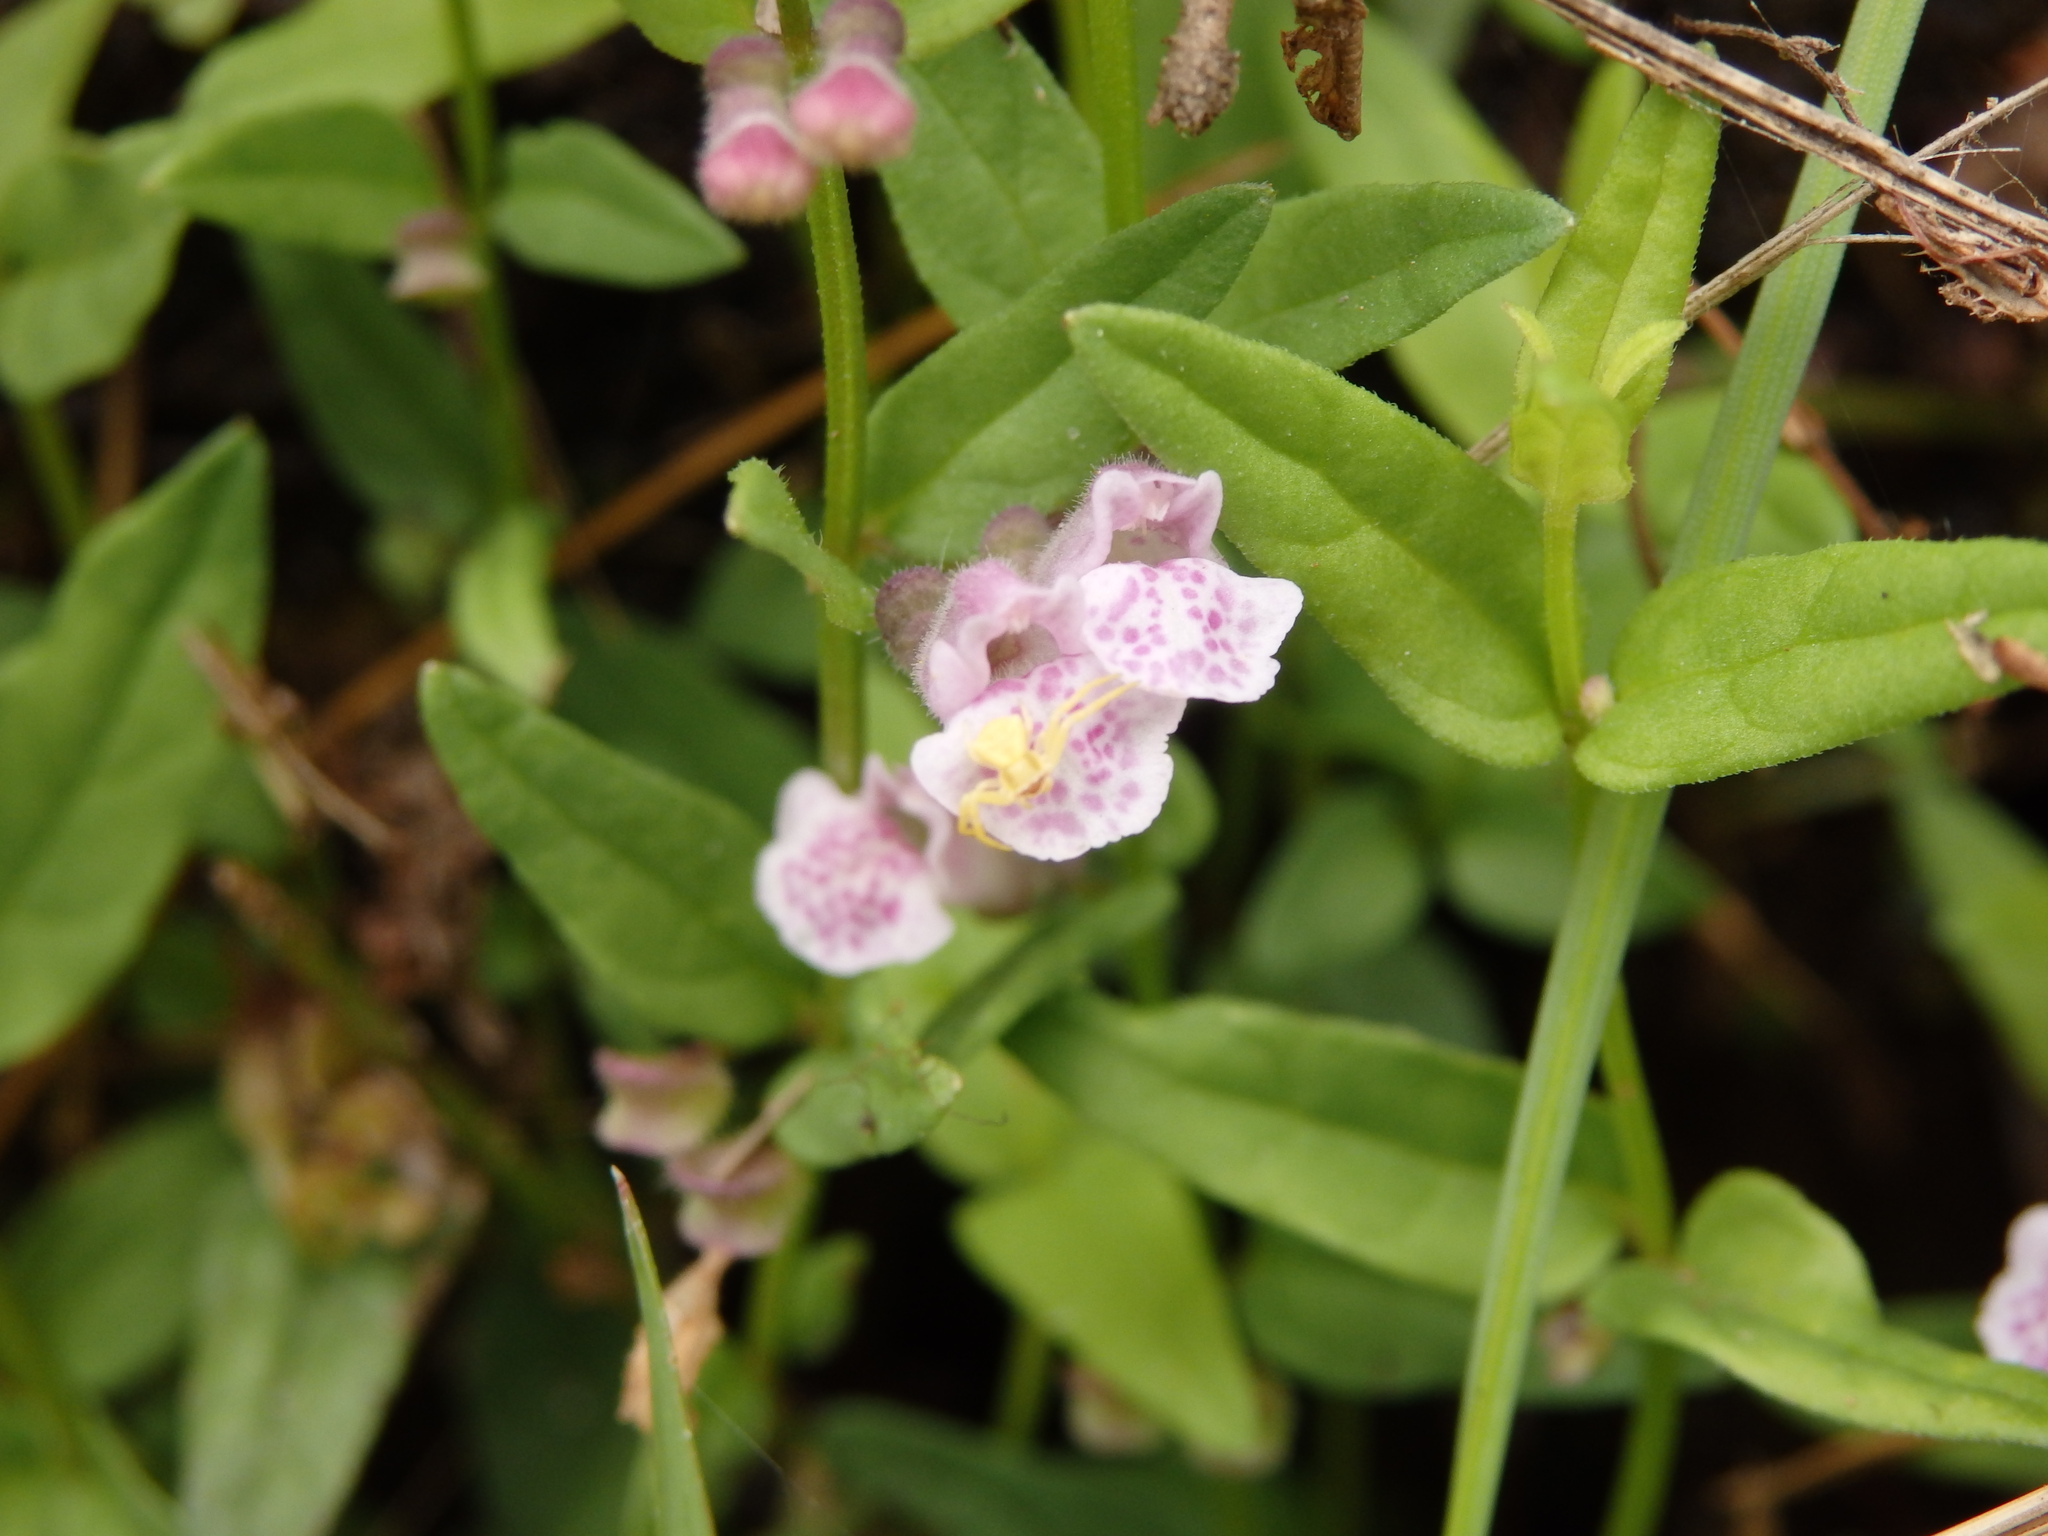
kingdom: Plantae
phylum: Tracheophyta
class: Magnoliopsida
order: Lamiales
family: Lamiaceae
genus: Scutellaria
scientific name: Scutellaria minor
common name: Lesser skullcap
